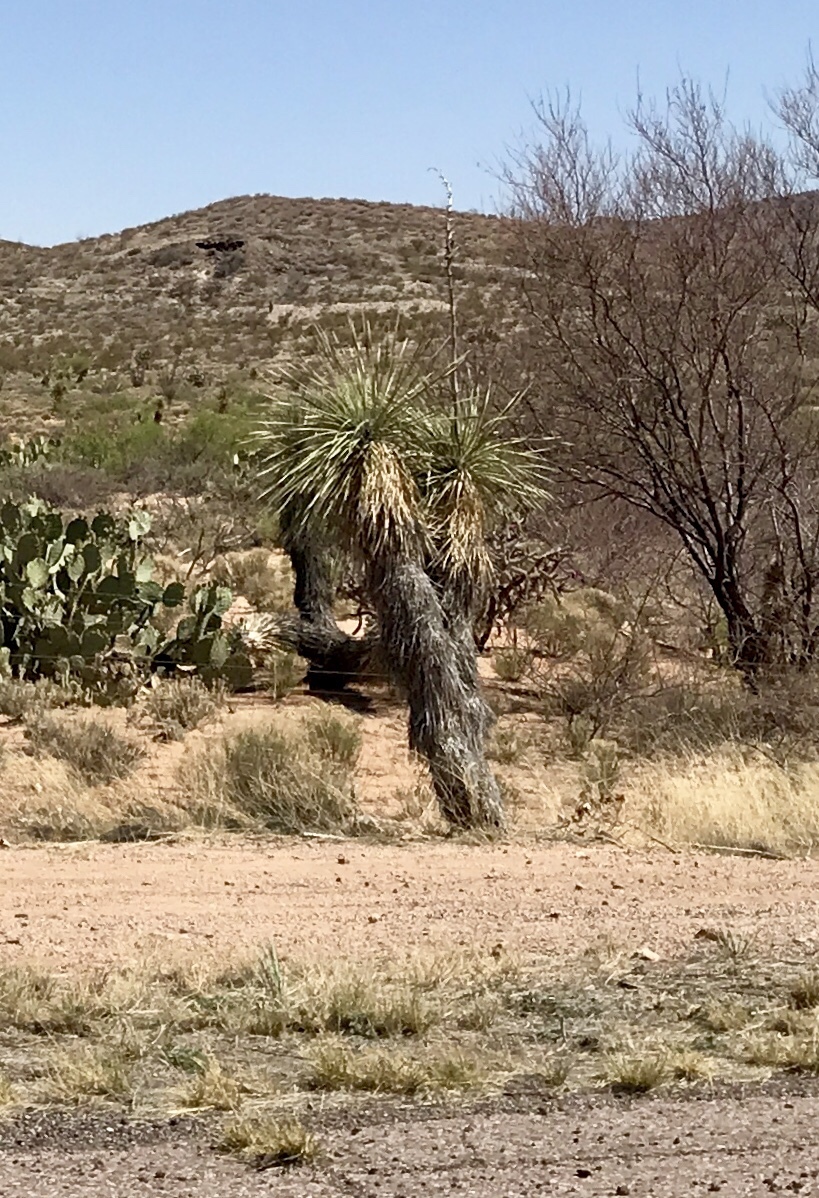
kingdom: Plantae
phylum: Tracheophyta
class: Liliopsida
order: Asparagales
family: Asparagaceae
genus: Yucca
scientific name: Yucca elata
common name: Palmella
